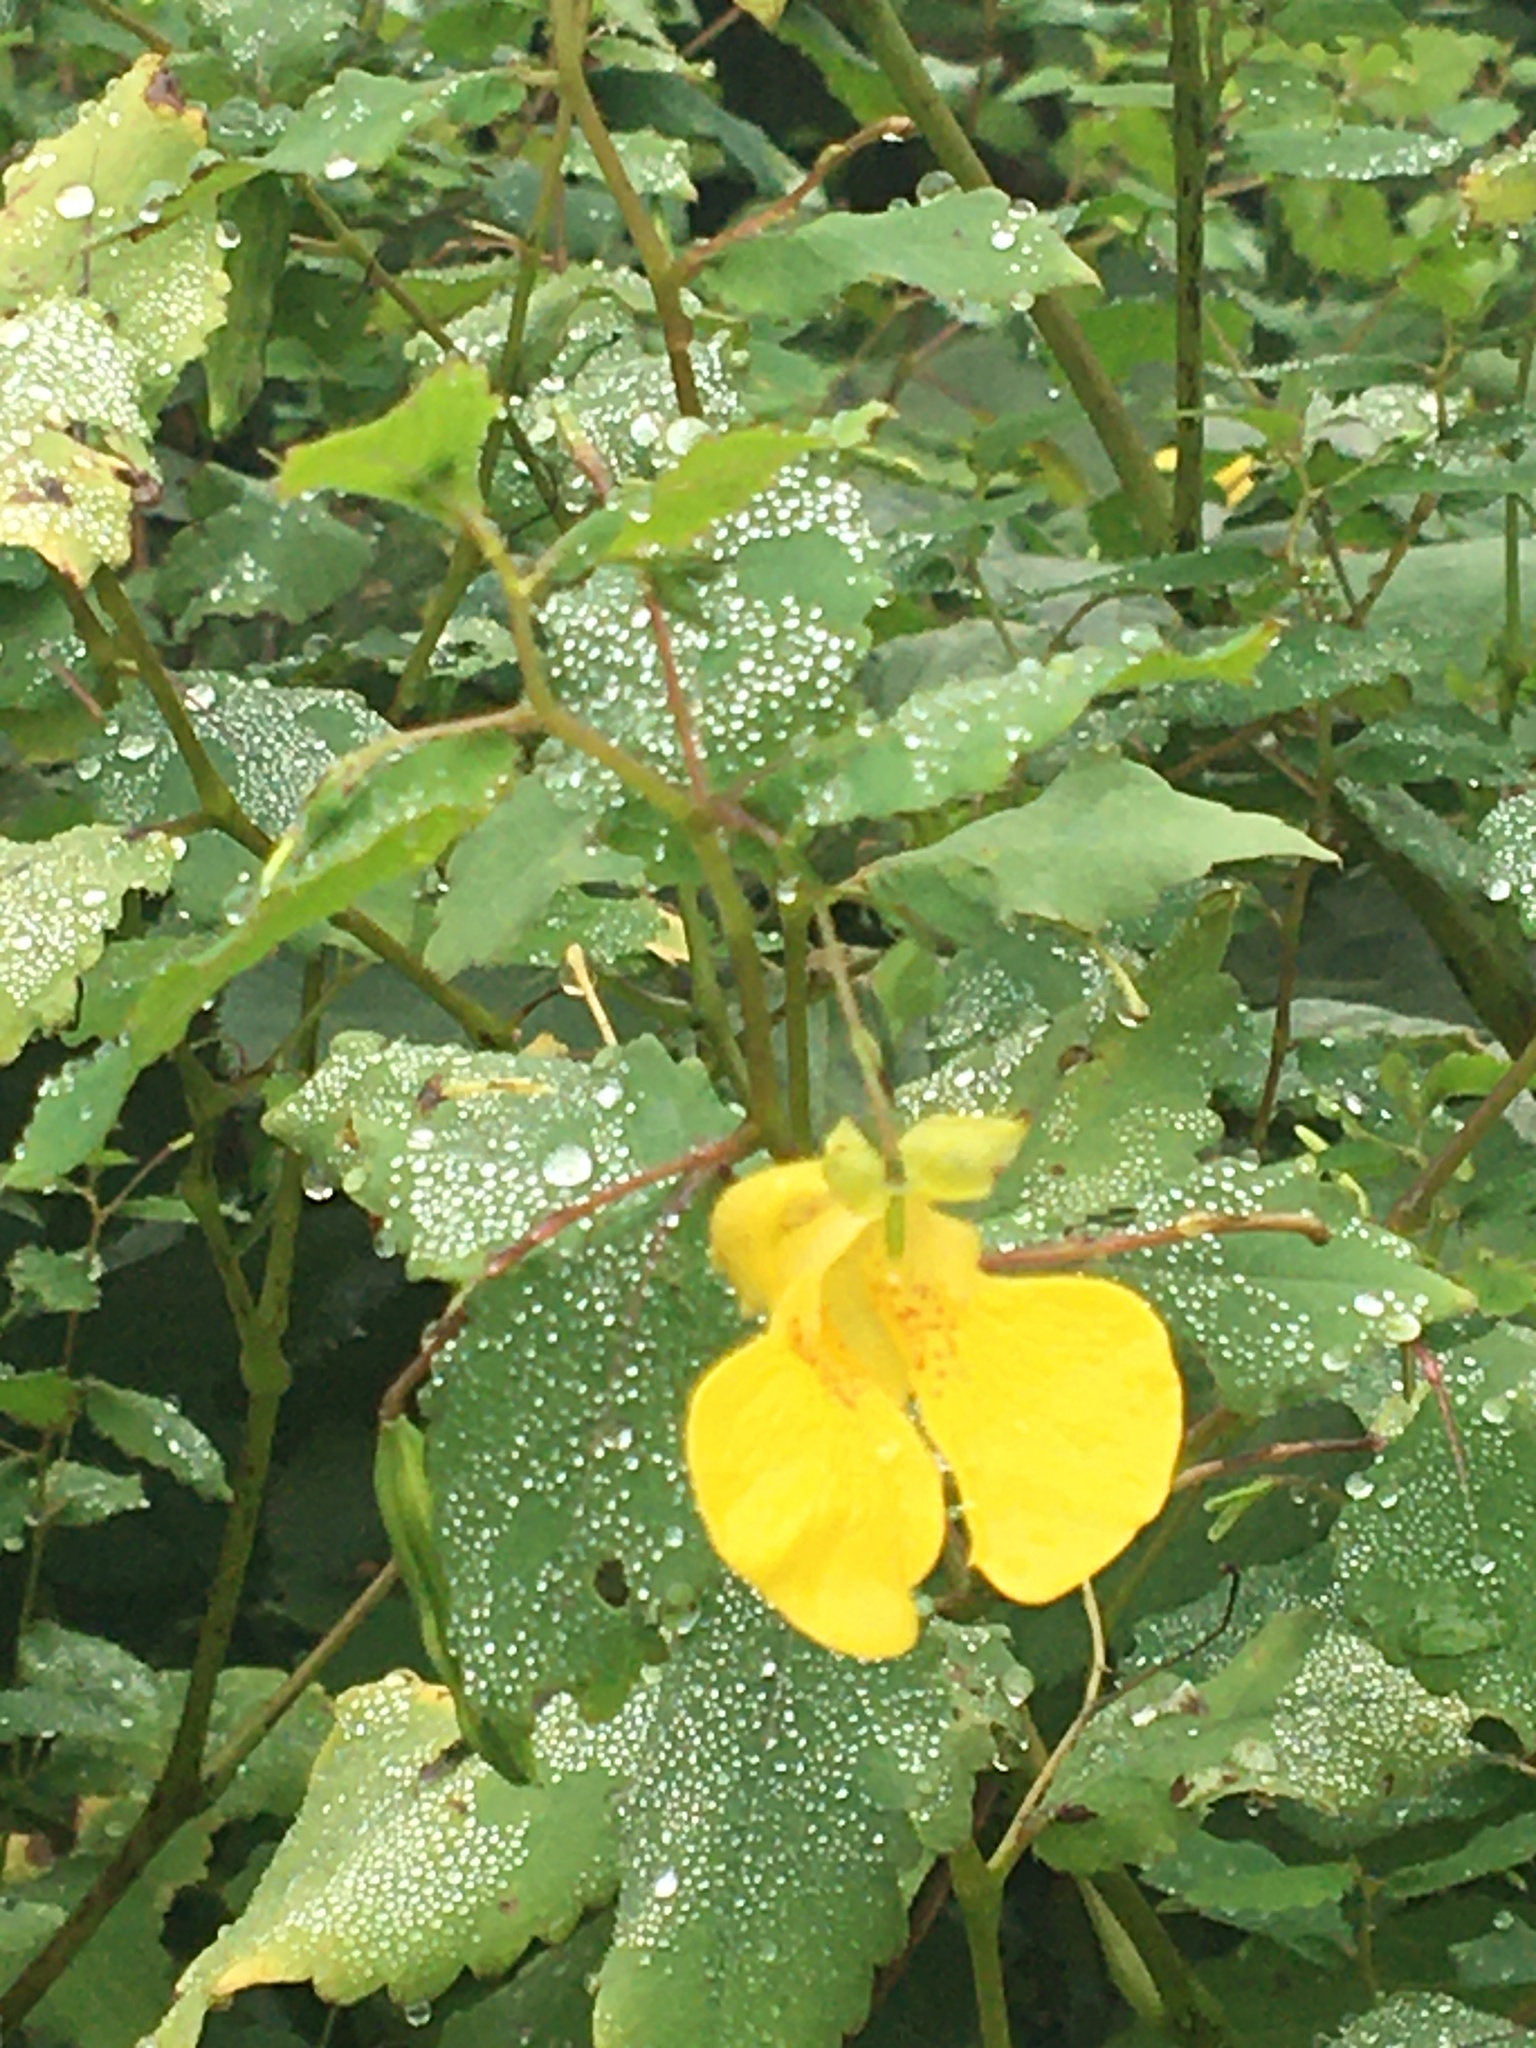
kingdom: Plantae
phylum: Tracheophyta
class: Magnoliopsida
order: Ericales
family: Balsaminaceae
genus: Impatiens
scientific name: Impatiens pallida
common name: Pale snapweed
